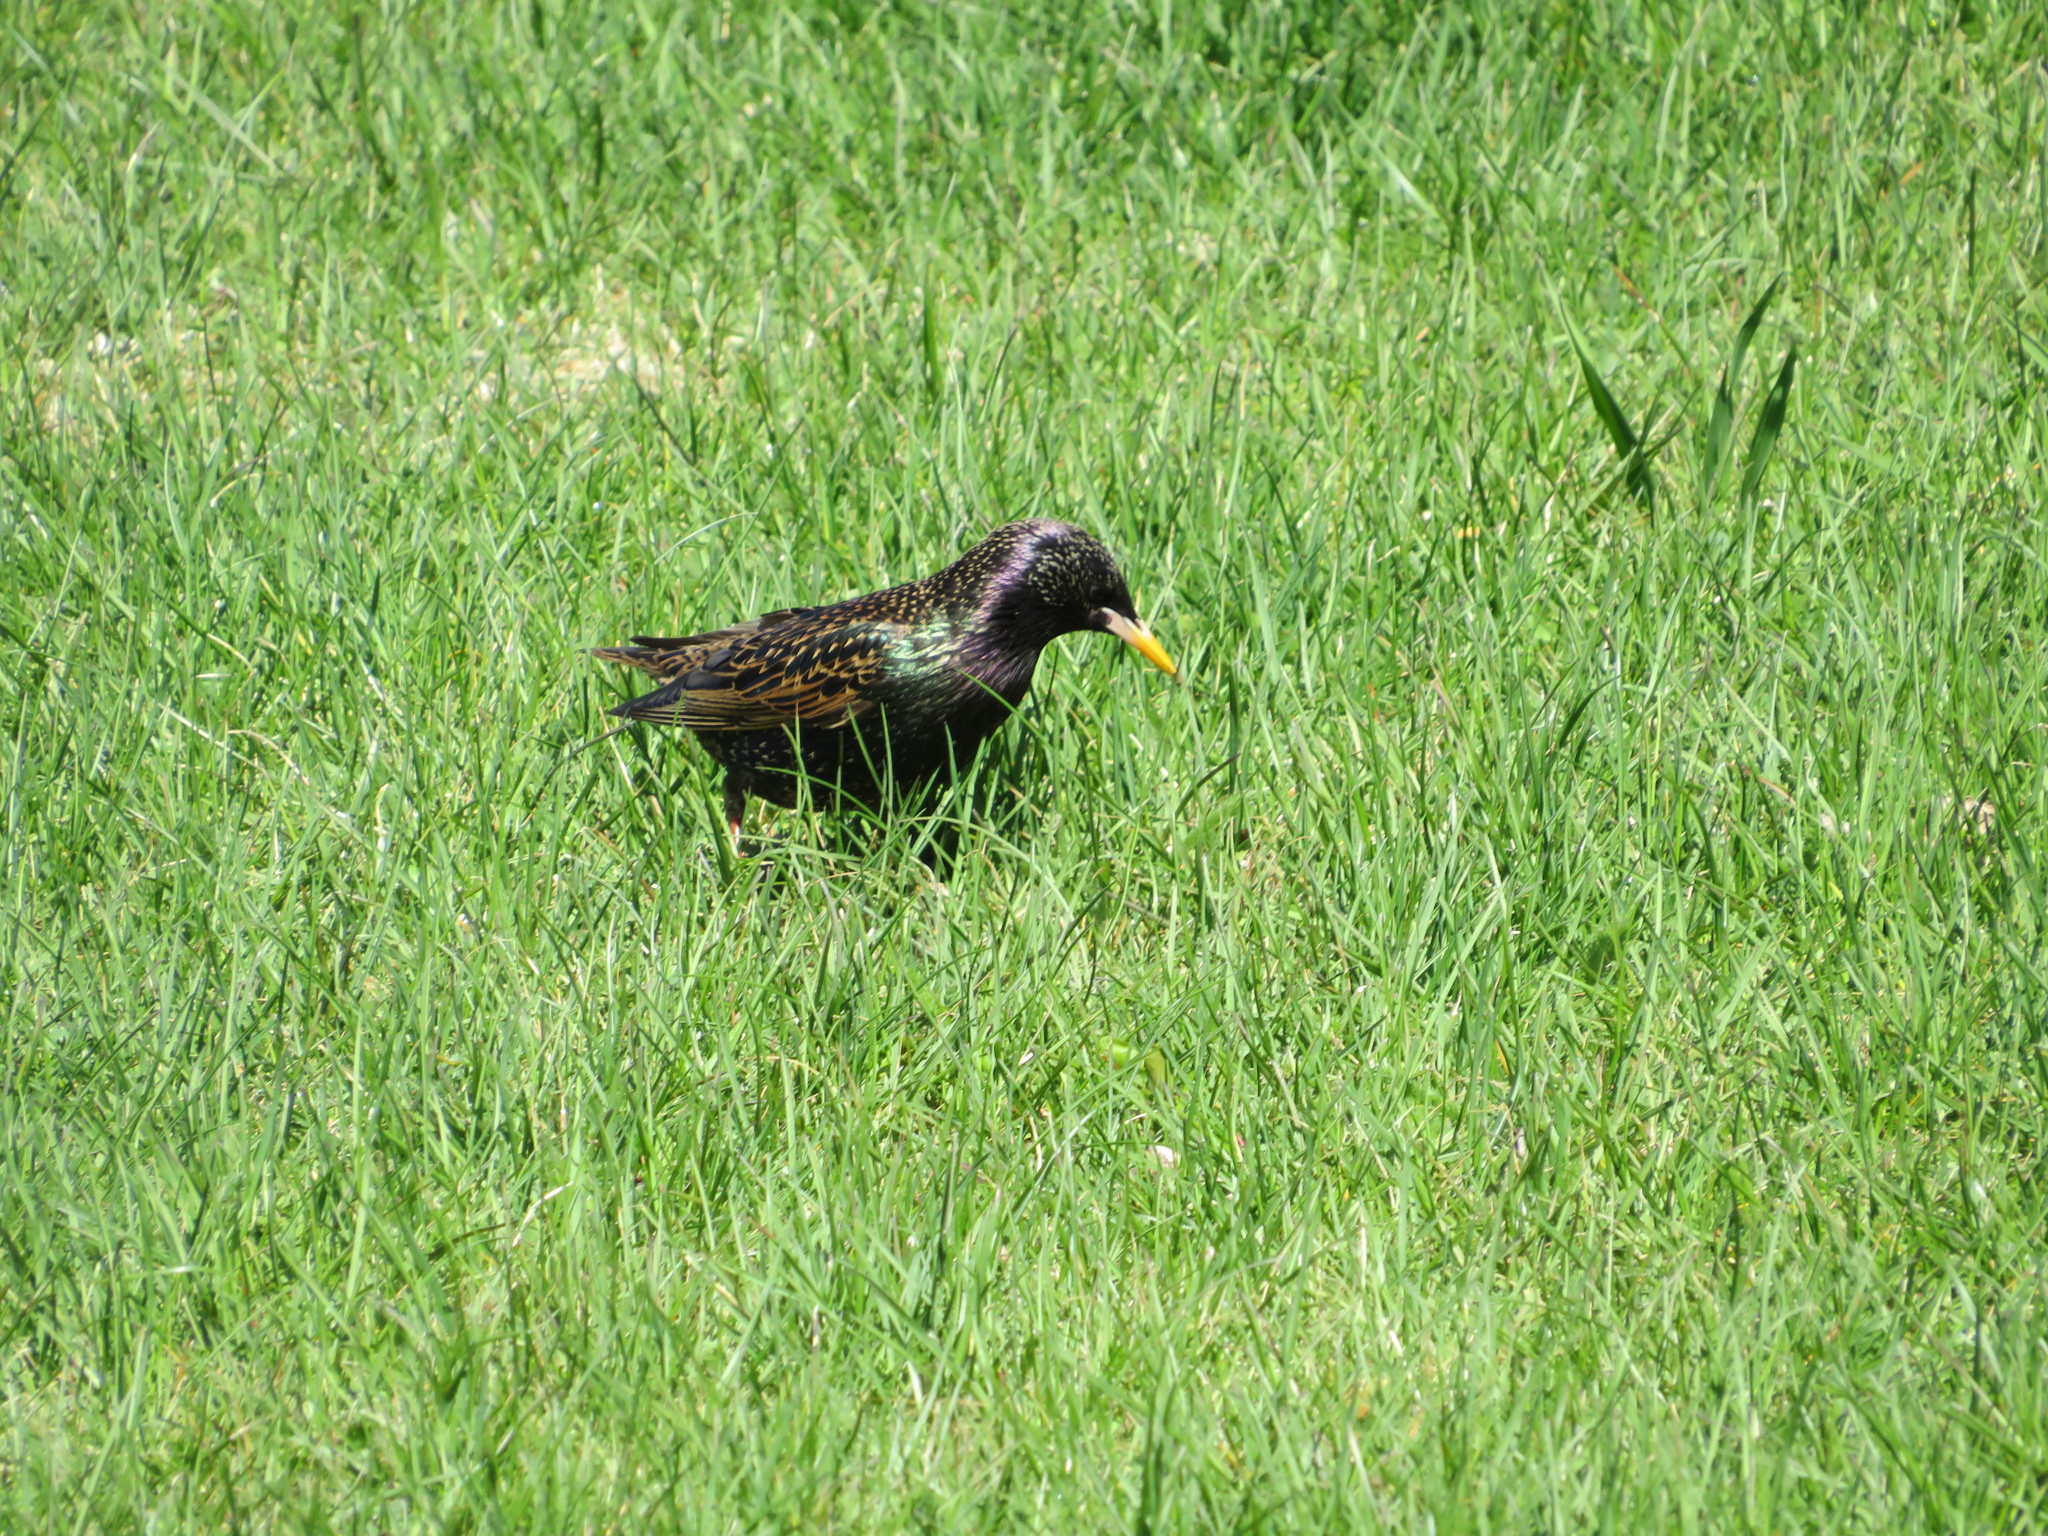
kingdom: Animalia
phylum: Chordata
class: Aves
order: Passeriformes
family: Sturnidae
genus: Sturnus
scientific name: Sturnus vulgaris
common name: Common starling
